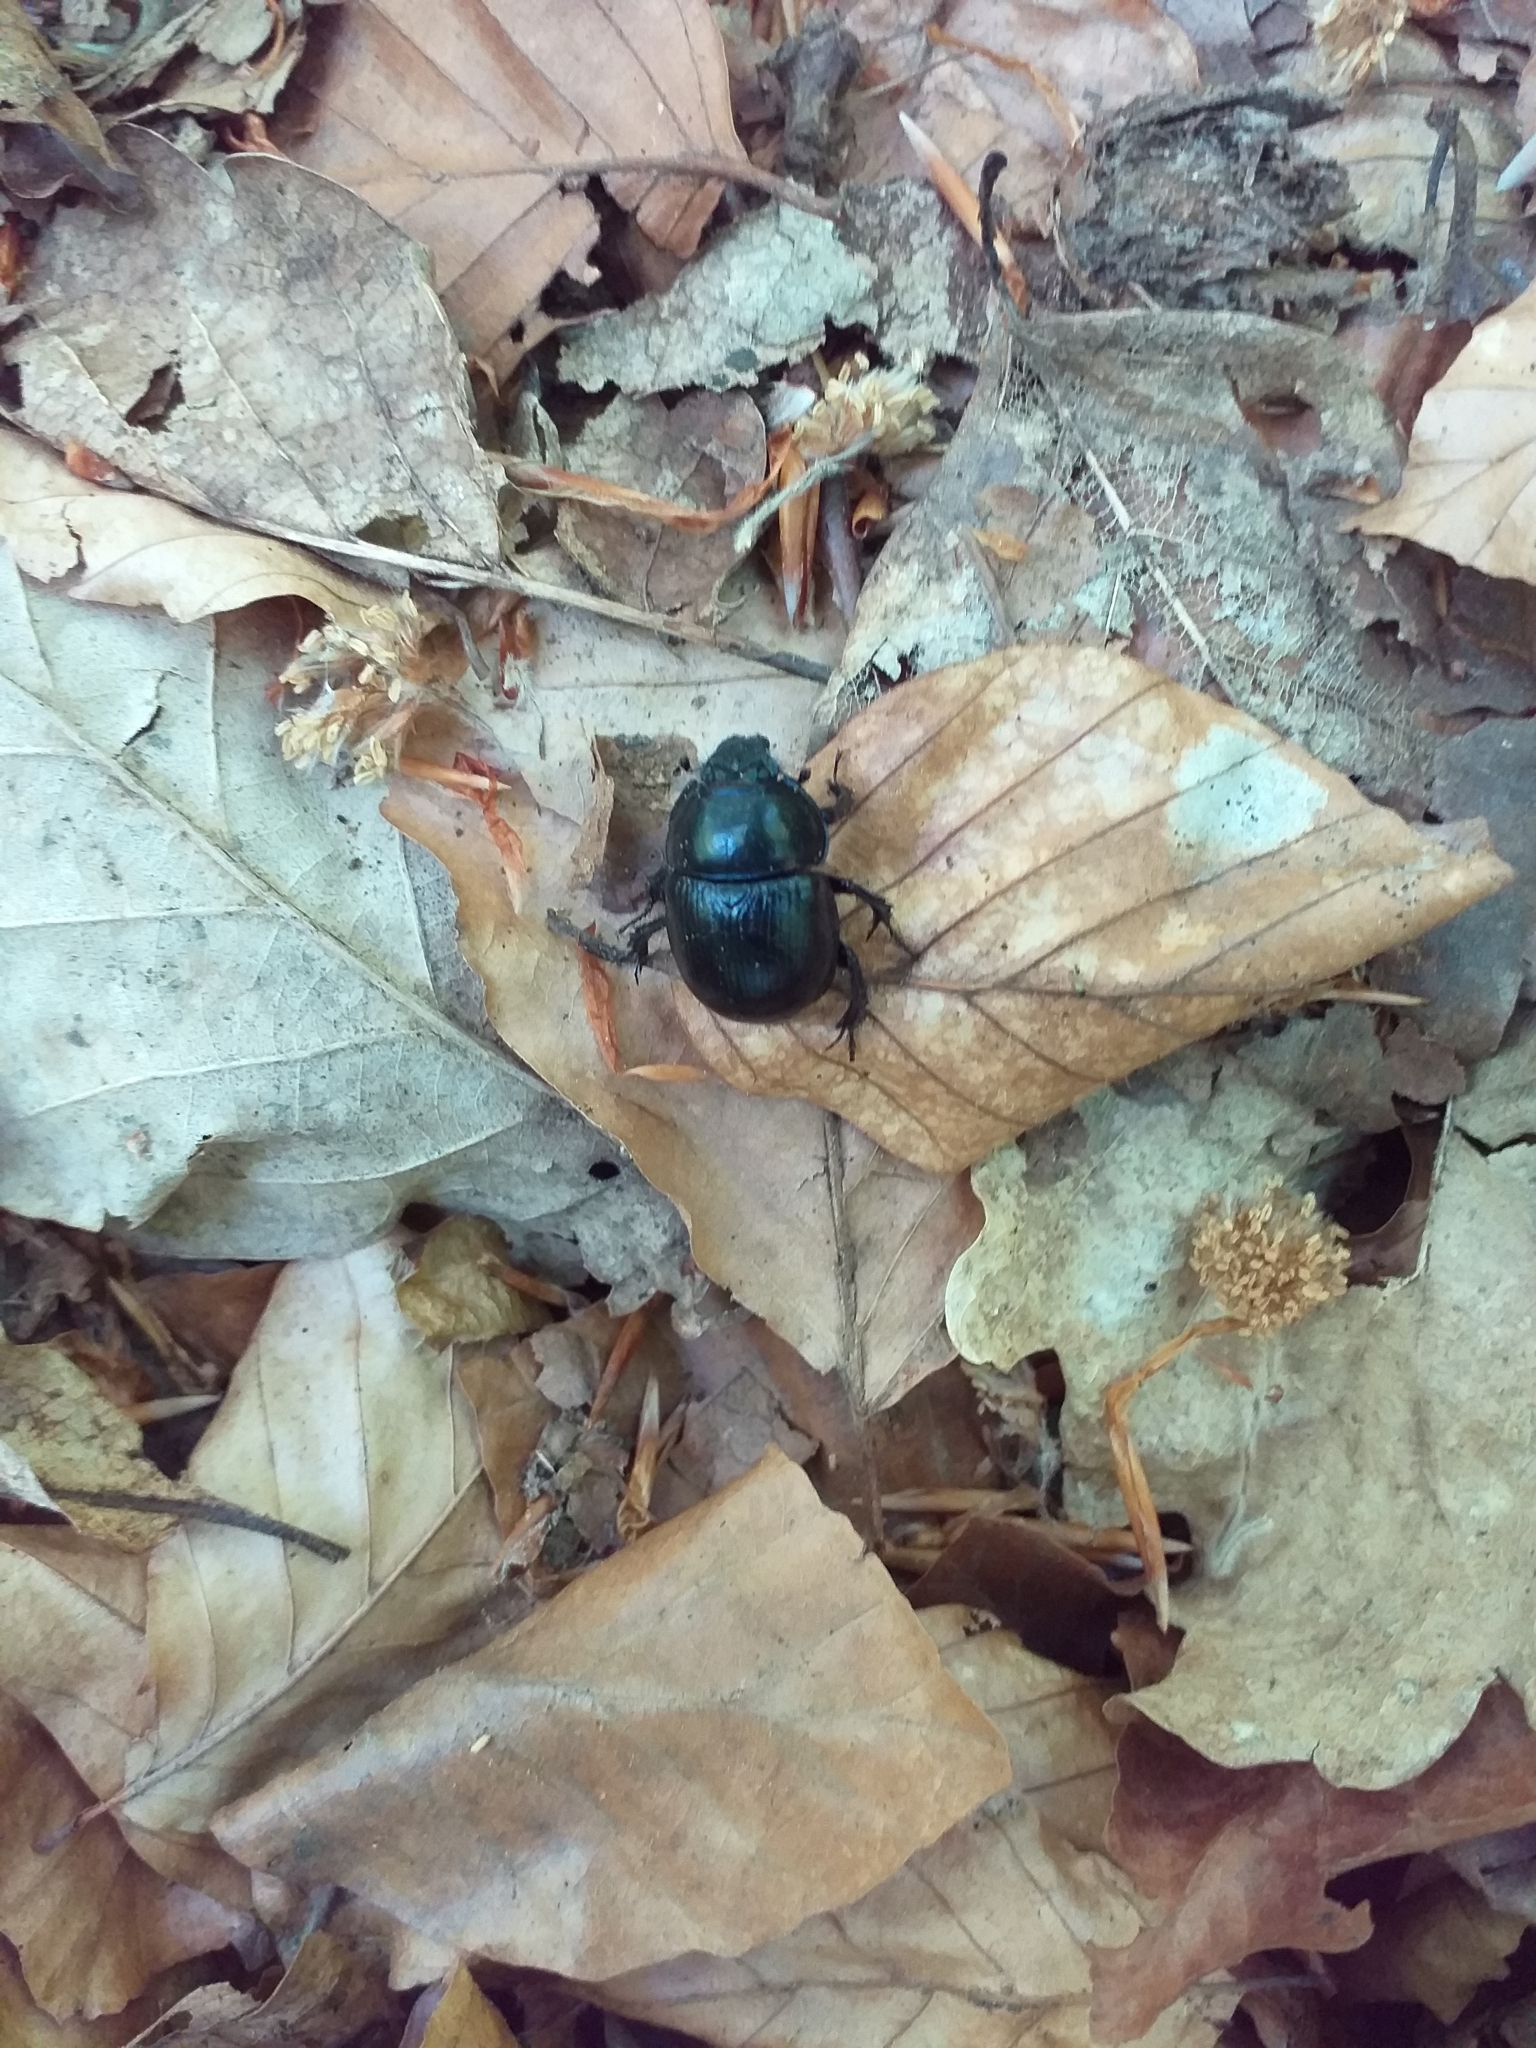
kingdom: Animalia
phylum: Arthropoda
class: Insecta
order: Coleoptera
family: Geotrupidae
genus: Anoplotrupes
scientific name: Anoplotrupes stercorosus
